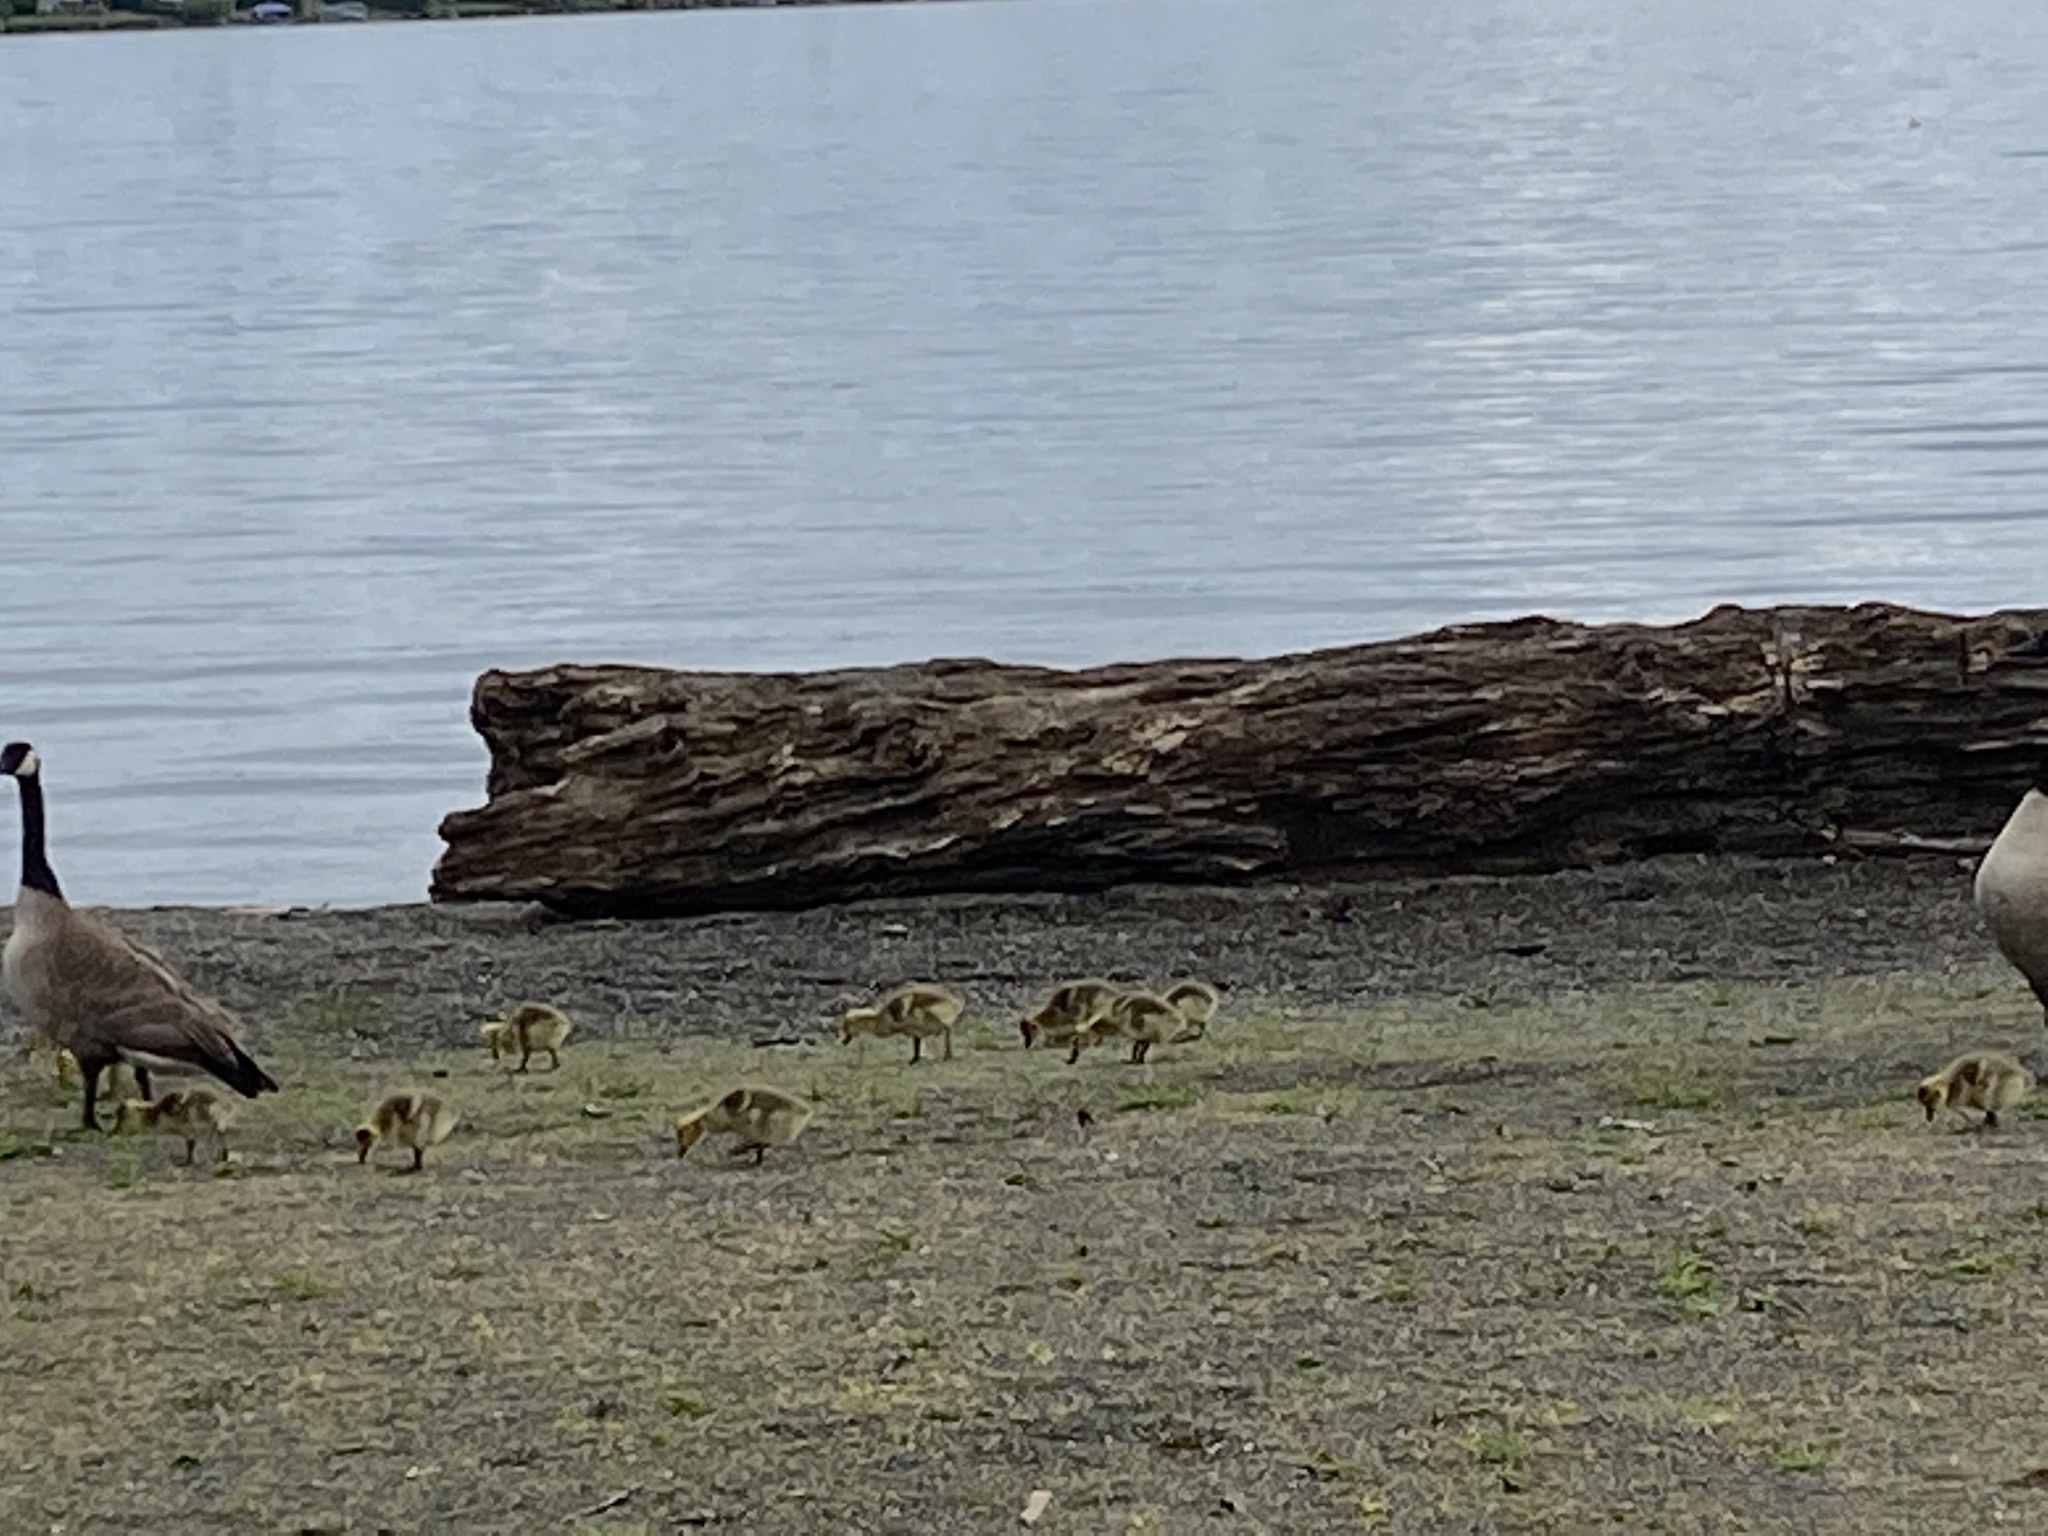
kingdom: Animalia
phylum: Chordata
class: Aves
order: Anseriformes
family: Anatidae
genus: Branta
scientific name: Branta canadensis
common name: Canada goose
